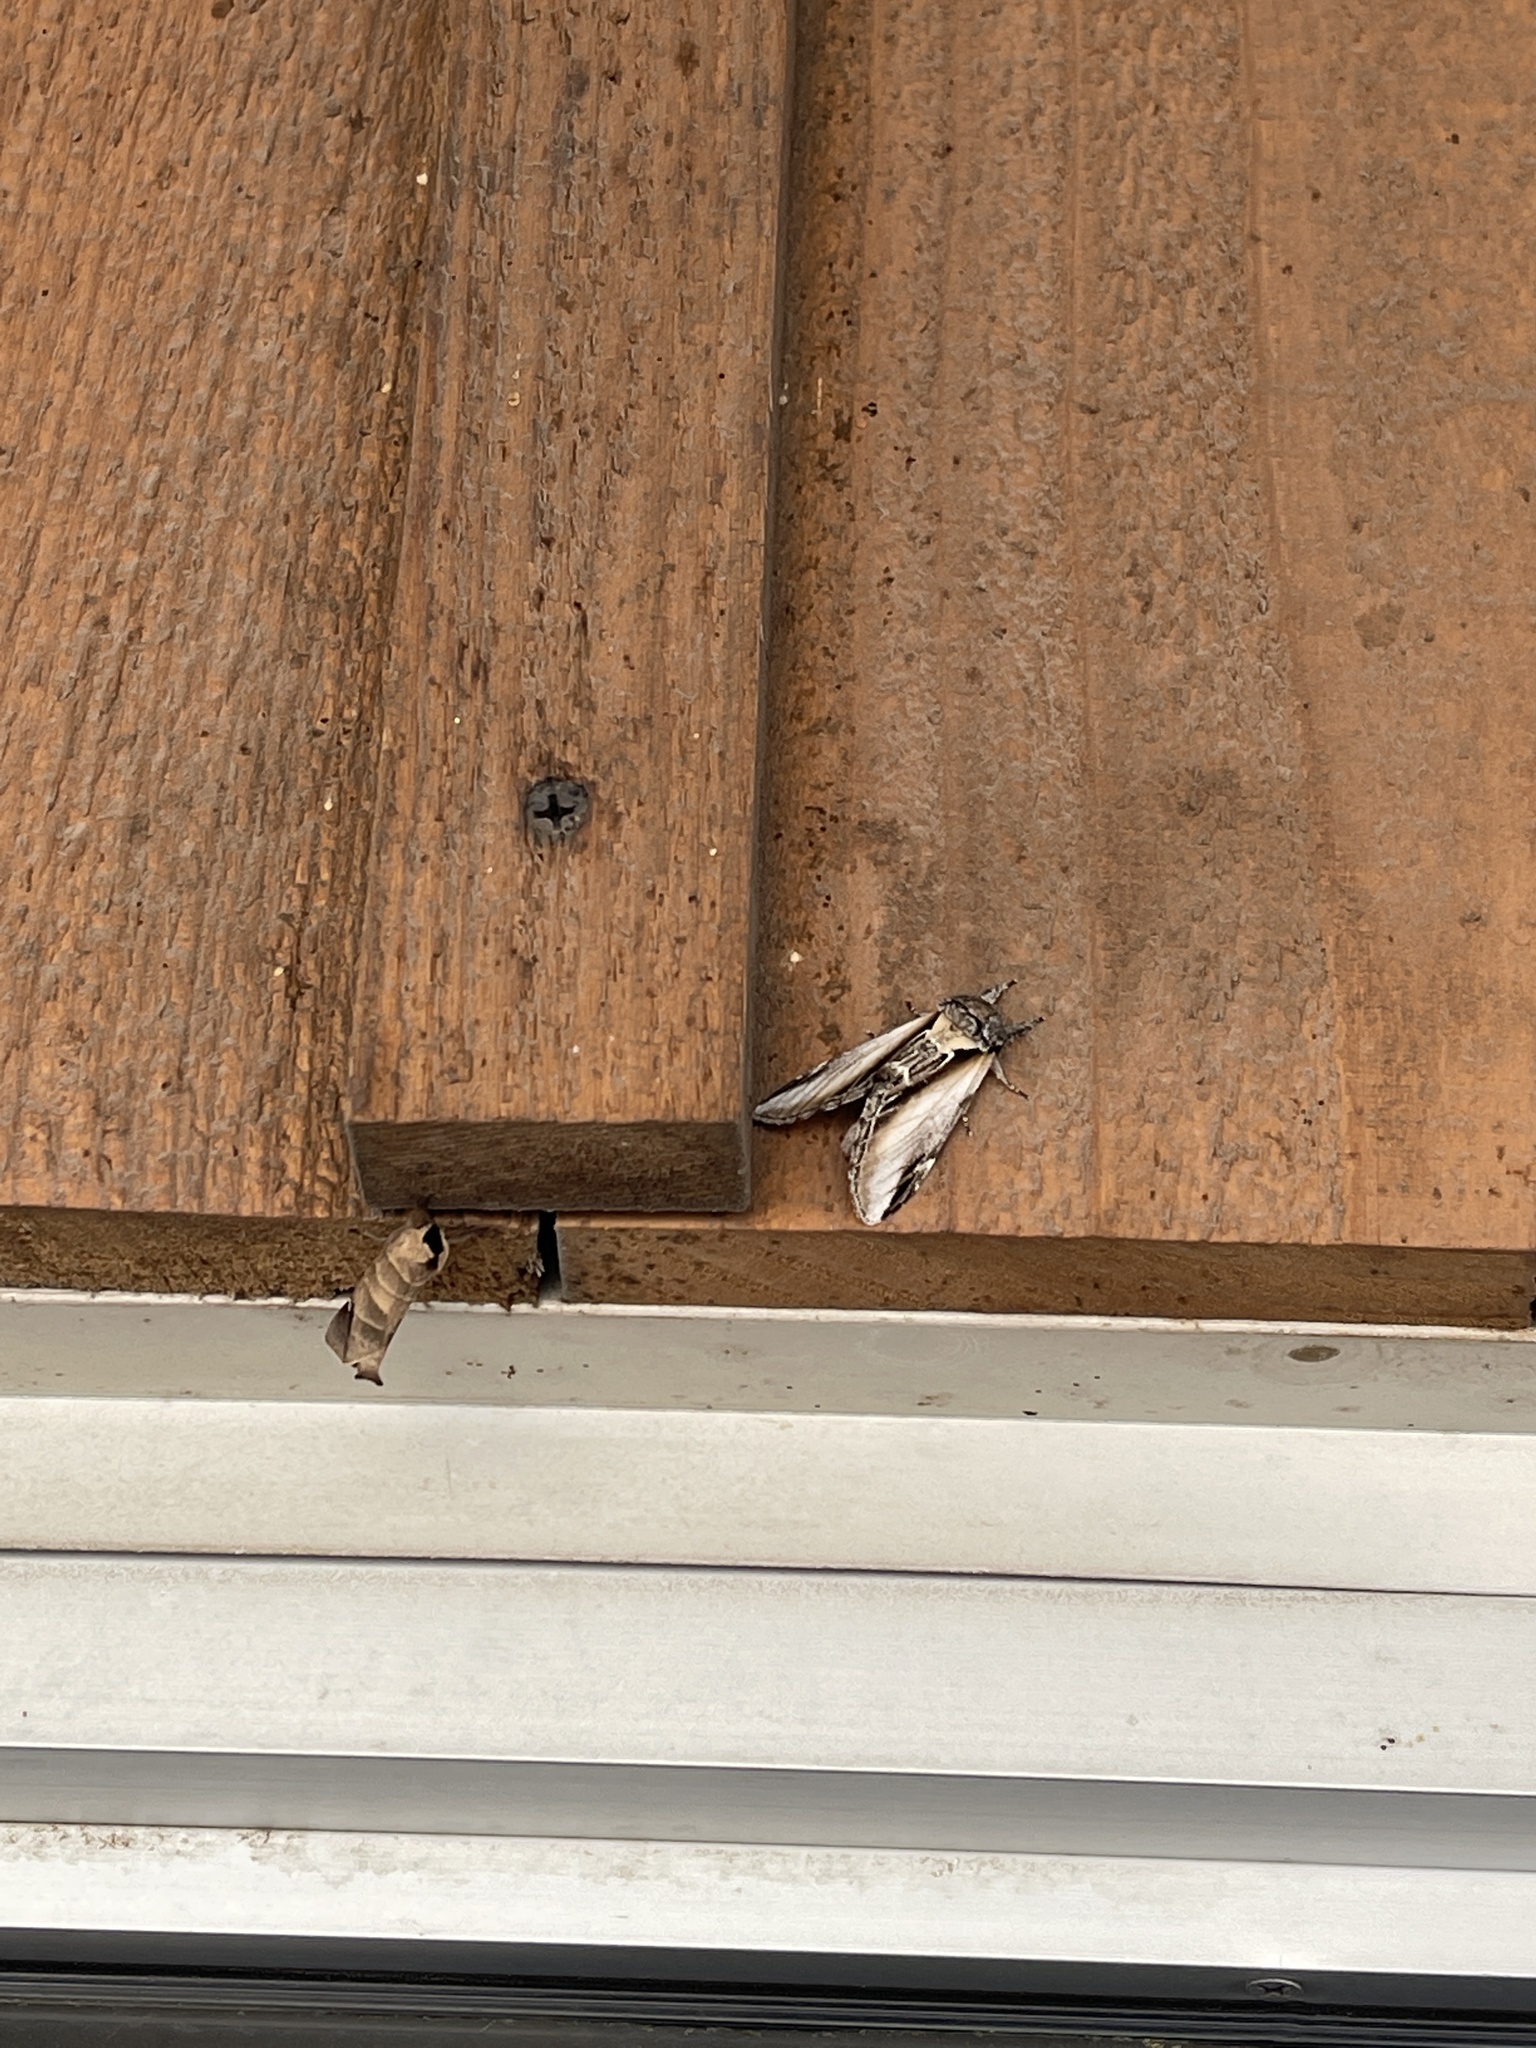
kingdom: Animalia
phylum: Arthropoda
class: Insecta
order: Lepidoptera
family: Notodontidae
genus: Pheosia
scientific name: Pheosia rimosa
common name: Black-rimmed prominent
